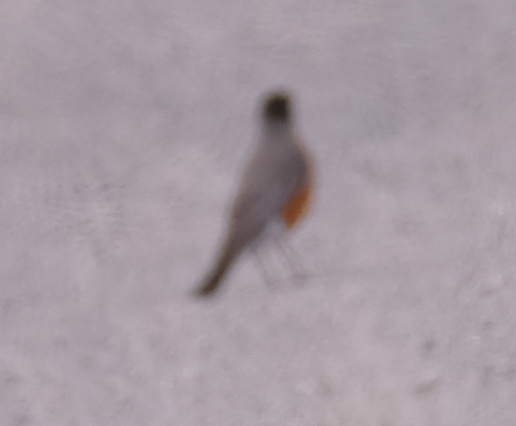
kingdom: Animalia
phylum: Chordata
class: Aves
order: Passeriformes
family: Turdidae
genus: Turdus
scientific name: Turdus migratorius
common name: American robin
